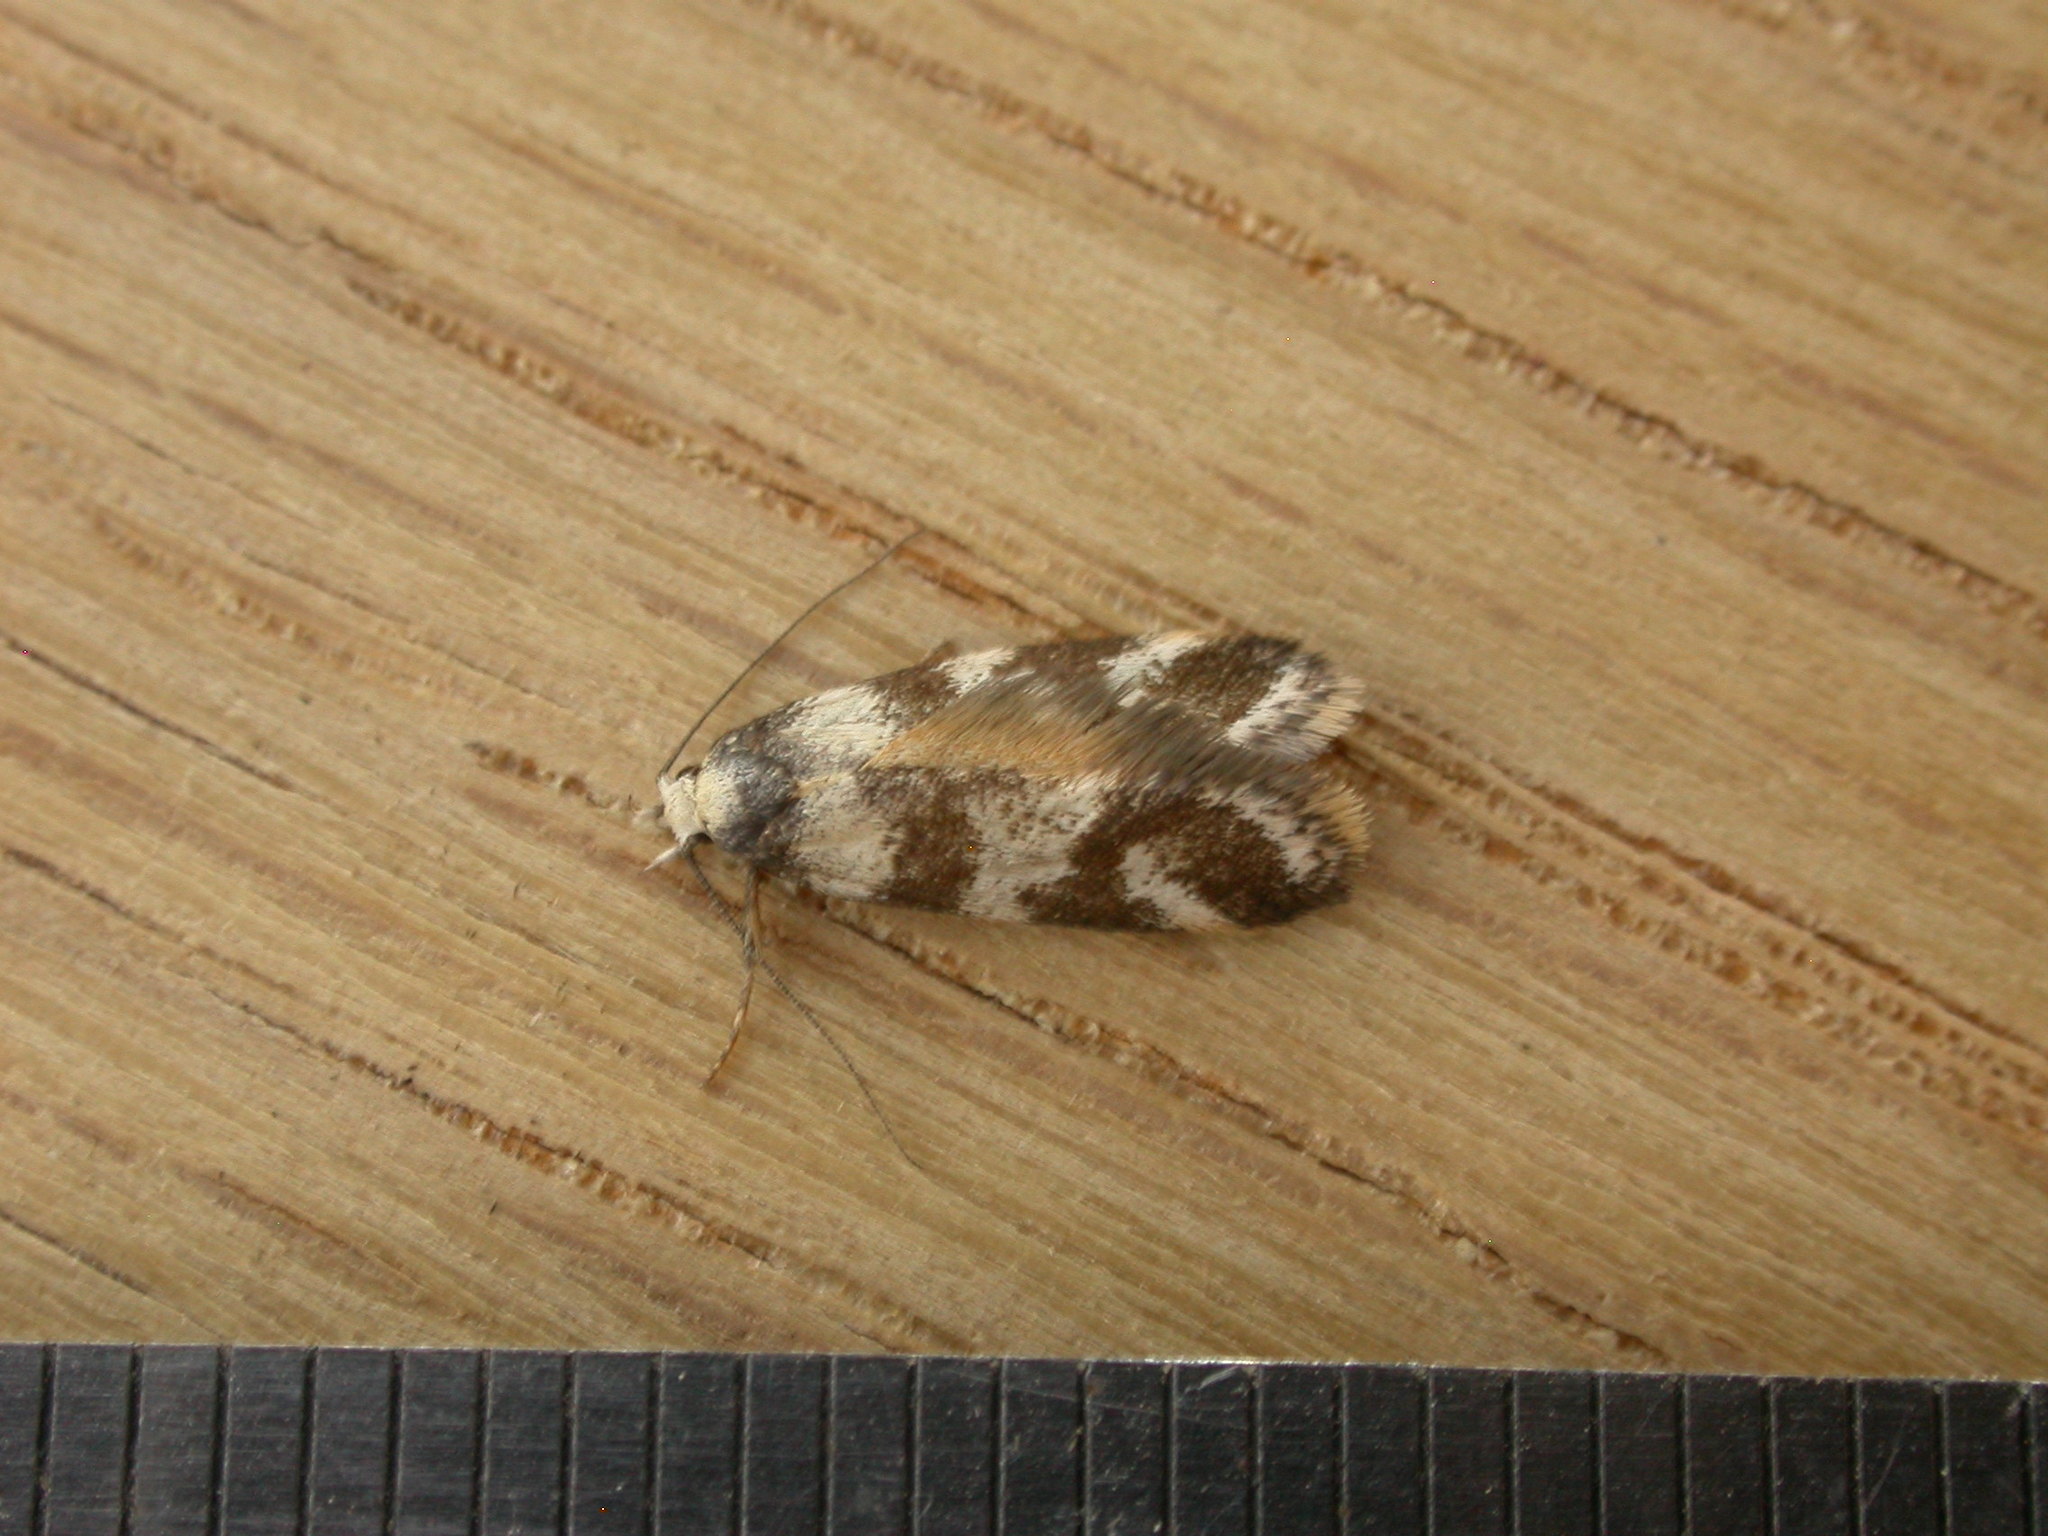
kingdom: Animalia
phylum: Arthropoda
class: Insecta
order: Lepidoptera
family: Oecophoridae
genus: Isomoralla
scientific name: Isomoralla eriscota
